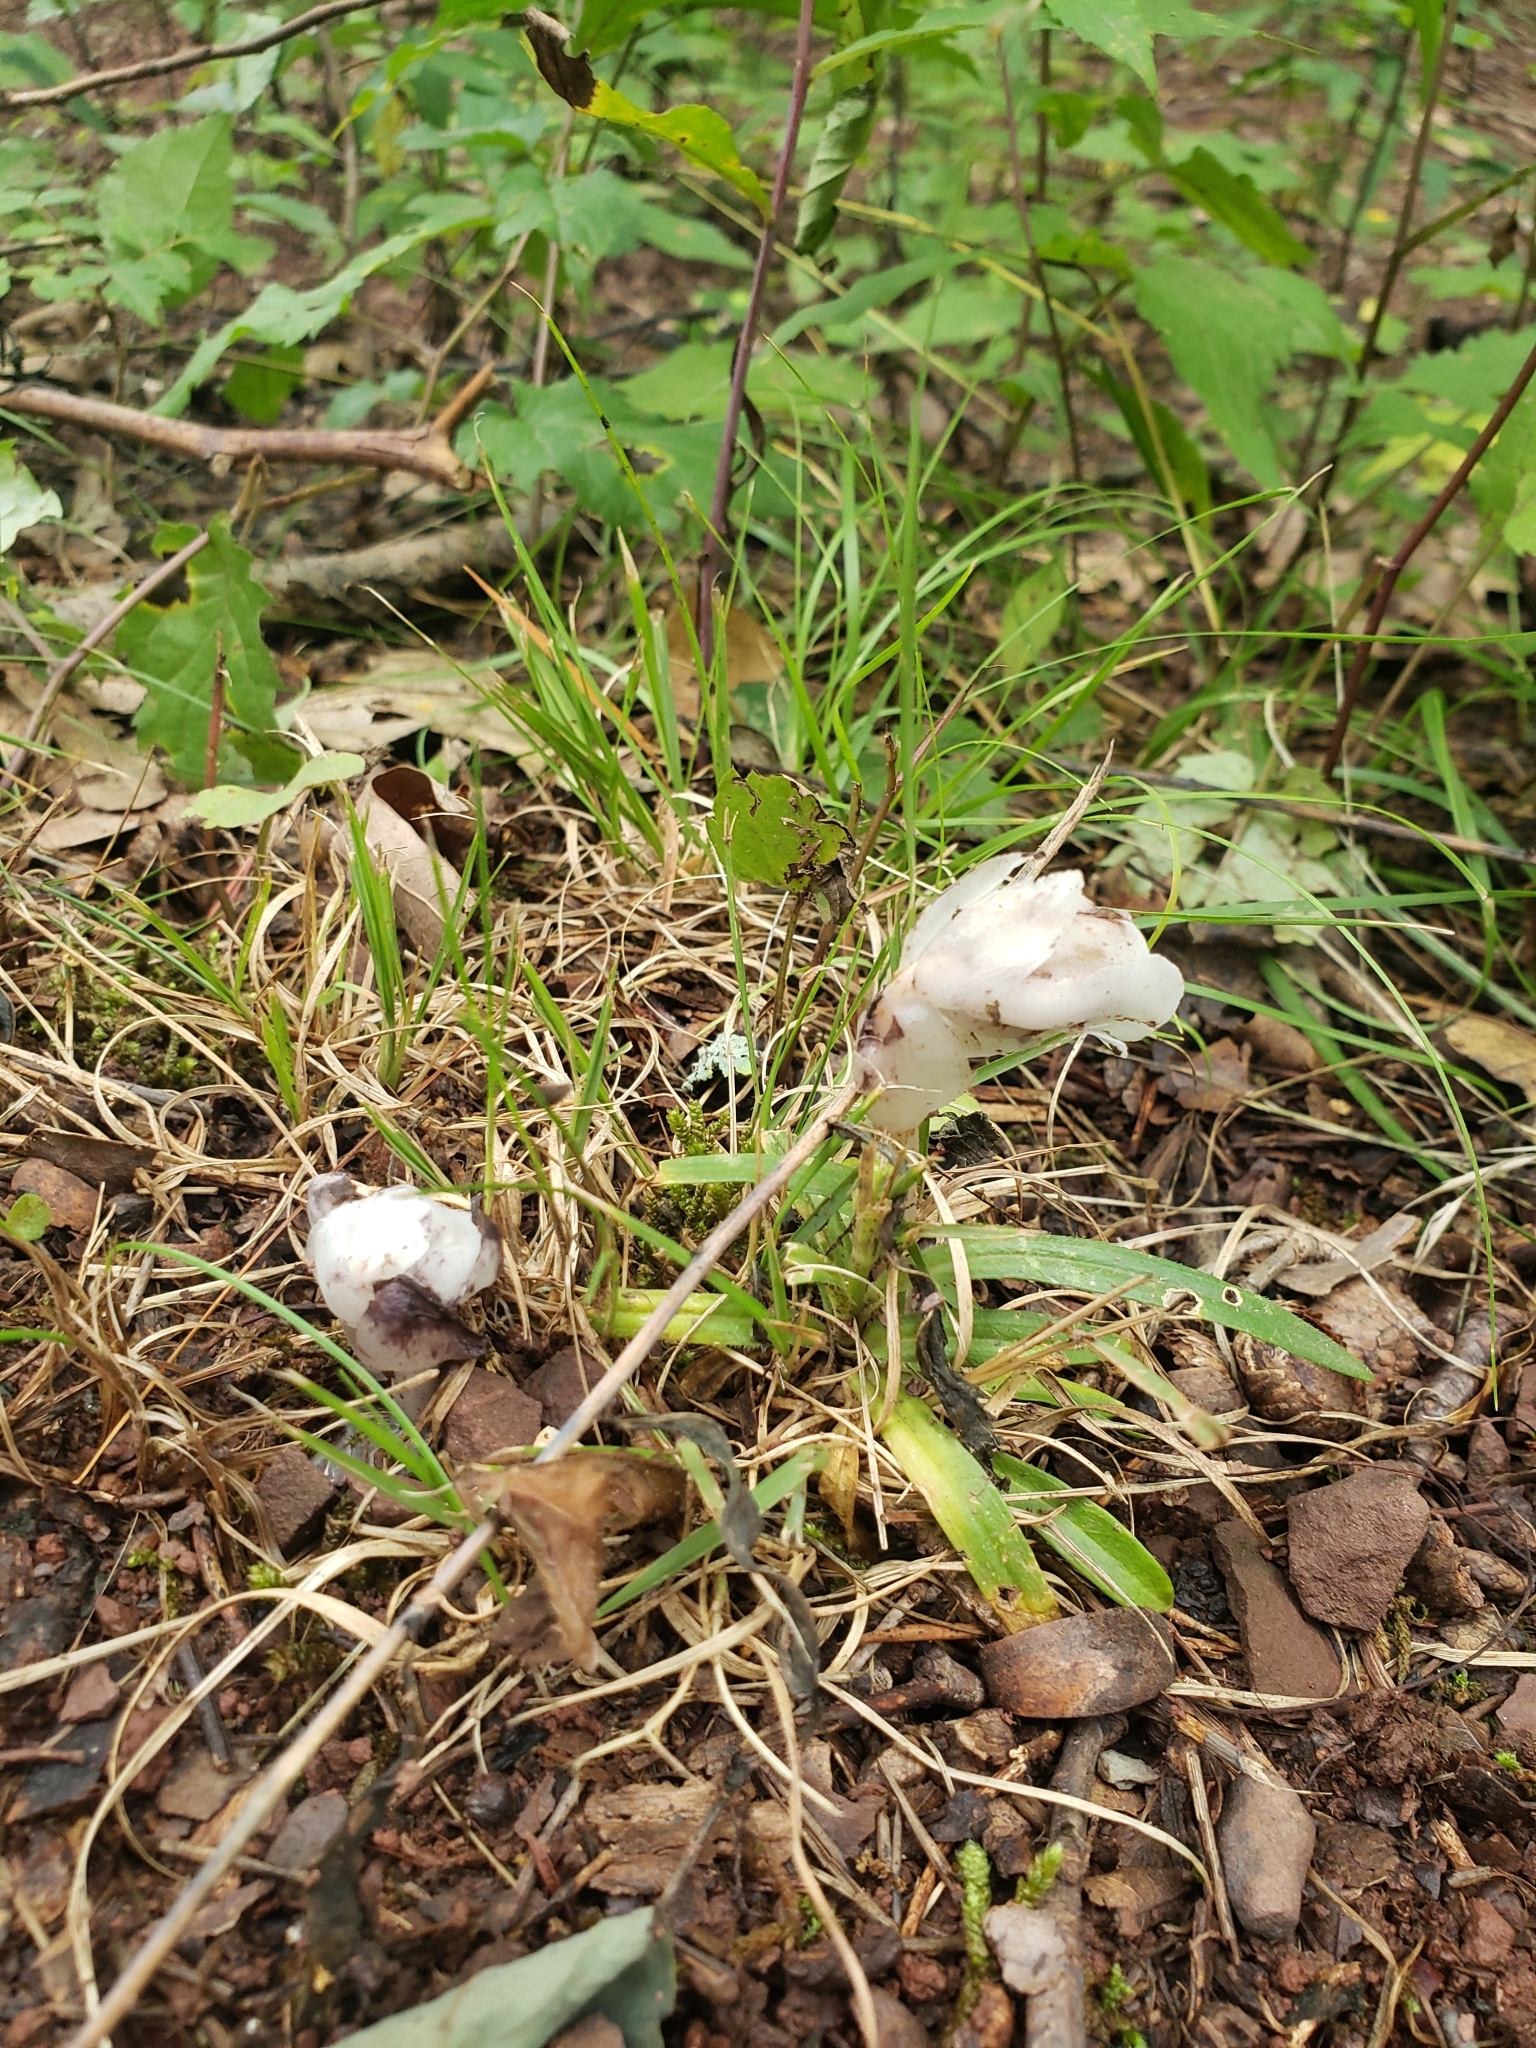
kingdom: Plantae
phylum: Tracheophyta
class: Magnoliopsida
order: Ericales
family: Ericaceae
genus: Monotropa
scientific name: Monotropa uniflora
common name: Convulsion root
